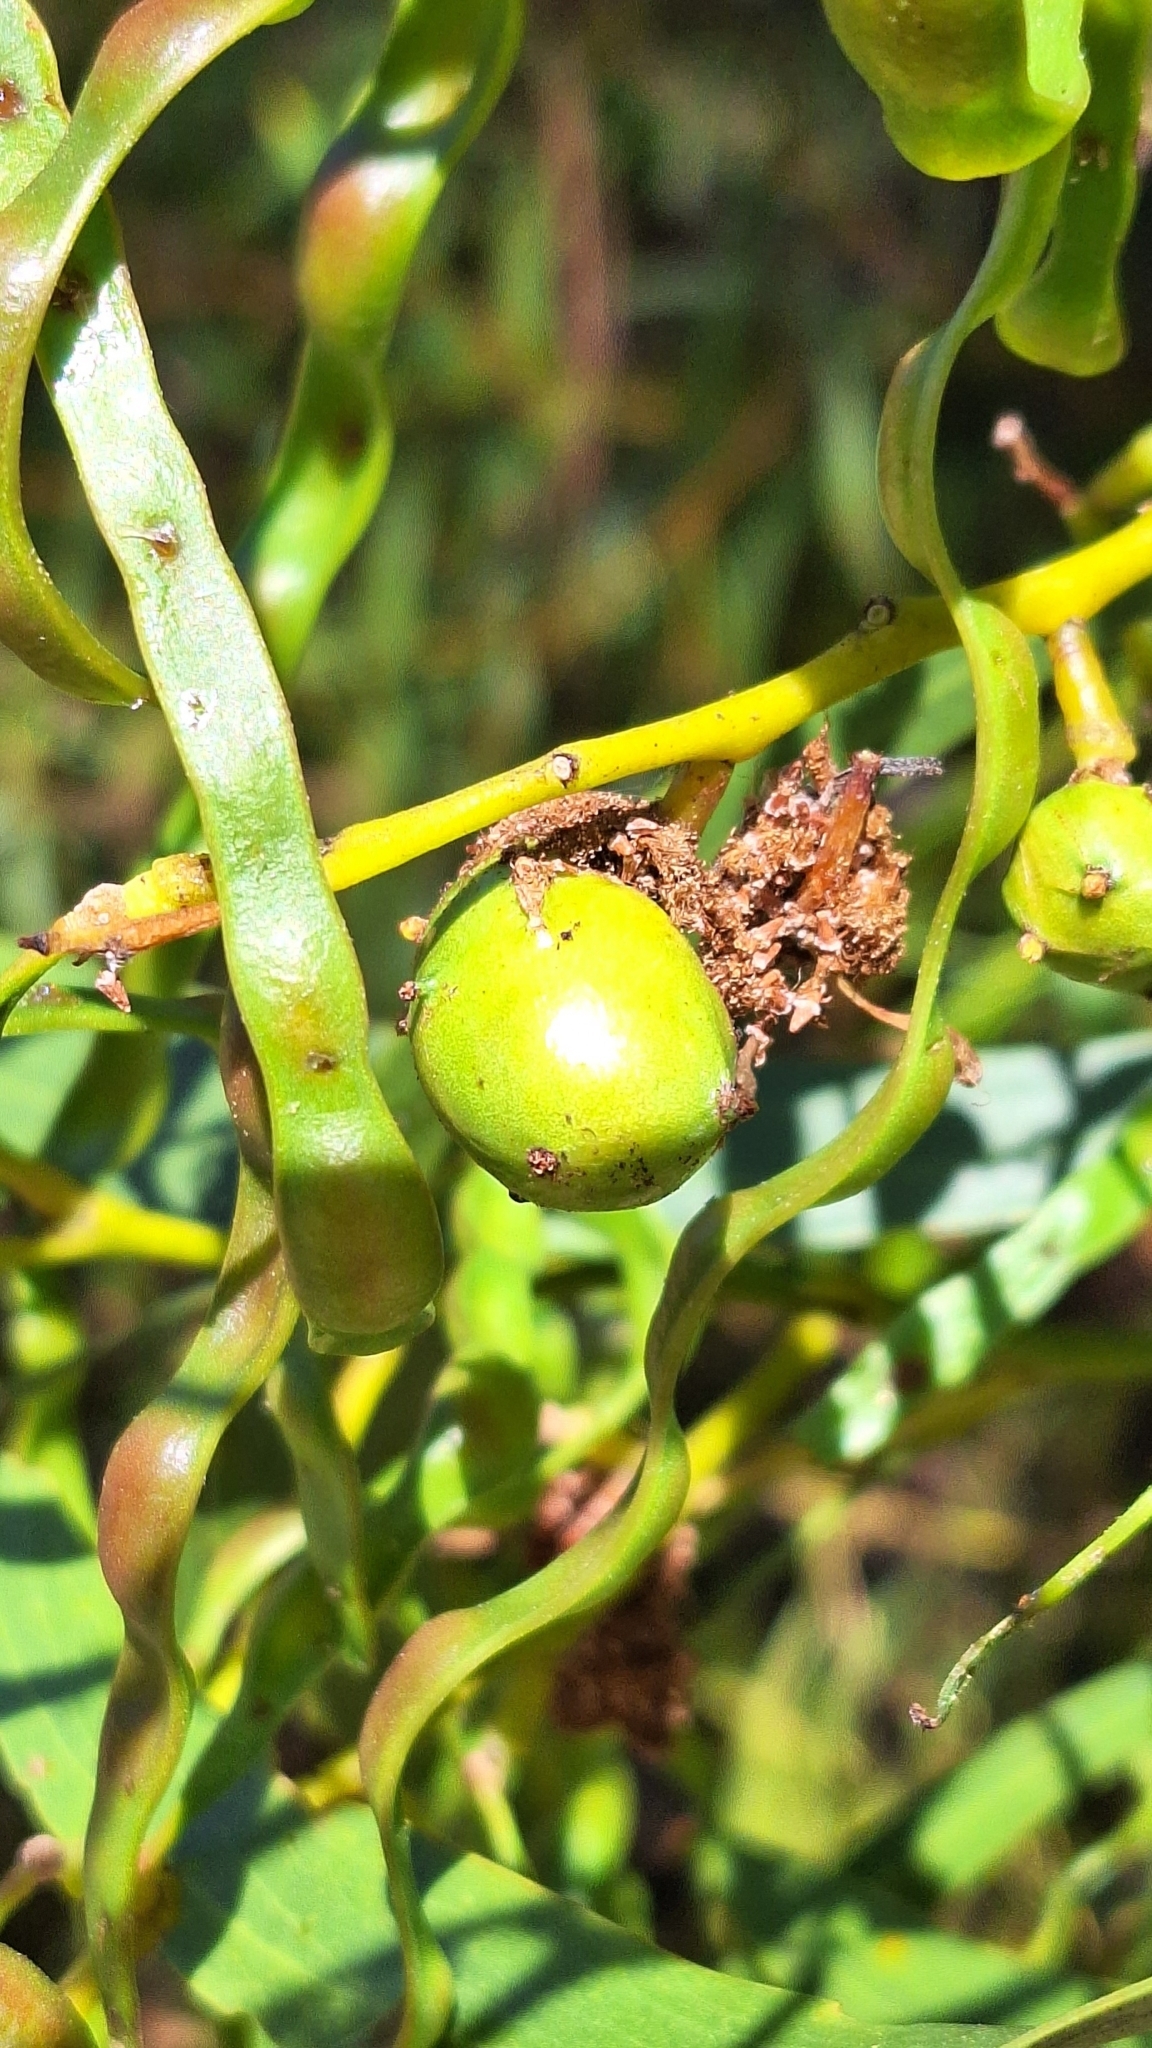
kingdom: Animalia
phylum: Arthropoda
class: Insecta
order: Hymenoptera
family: Pteromalidae
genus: Trichilogaster
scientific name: Trichilogaster signiventris
